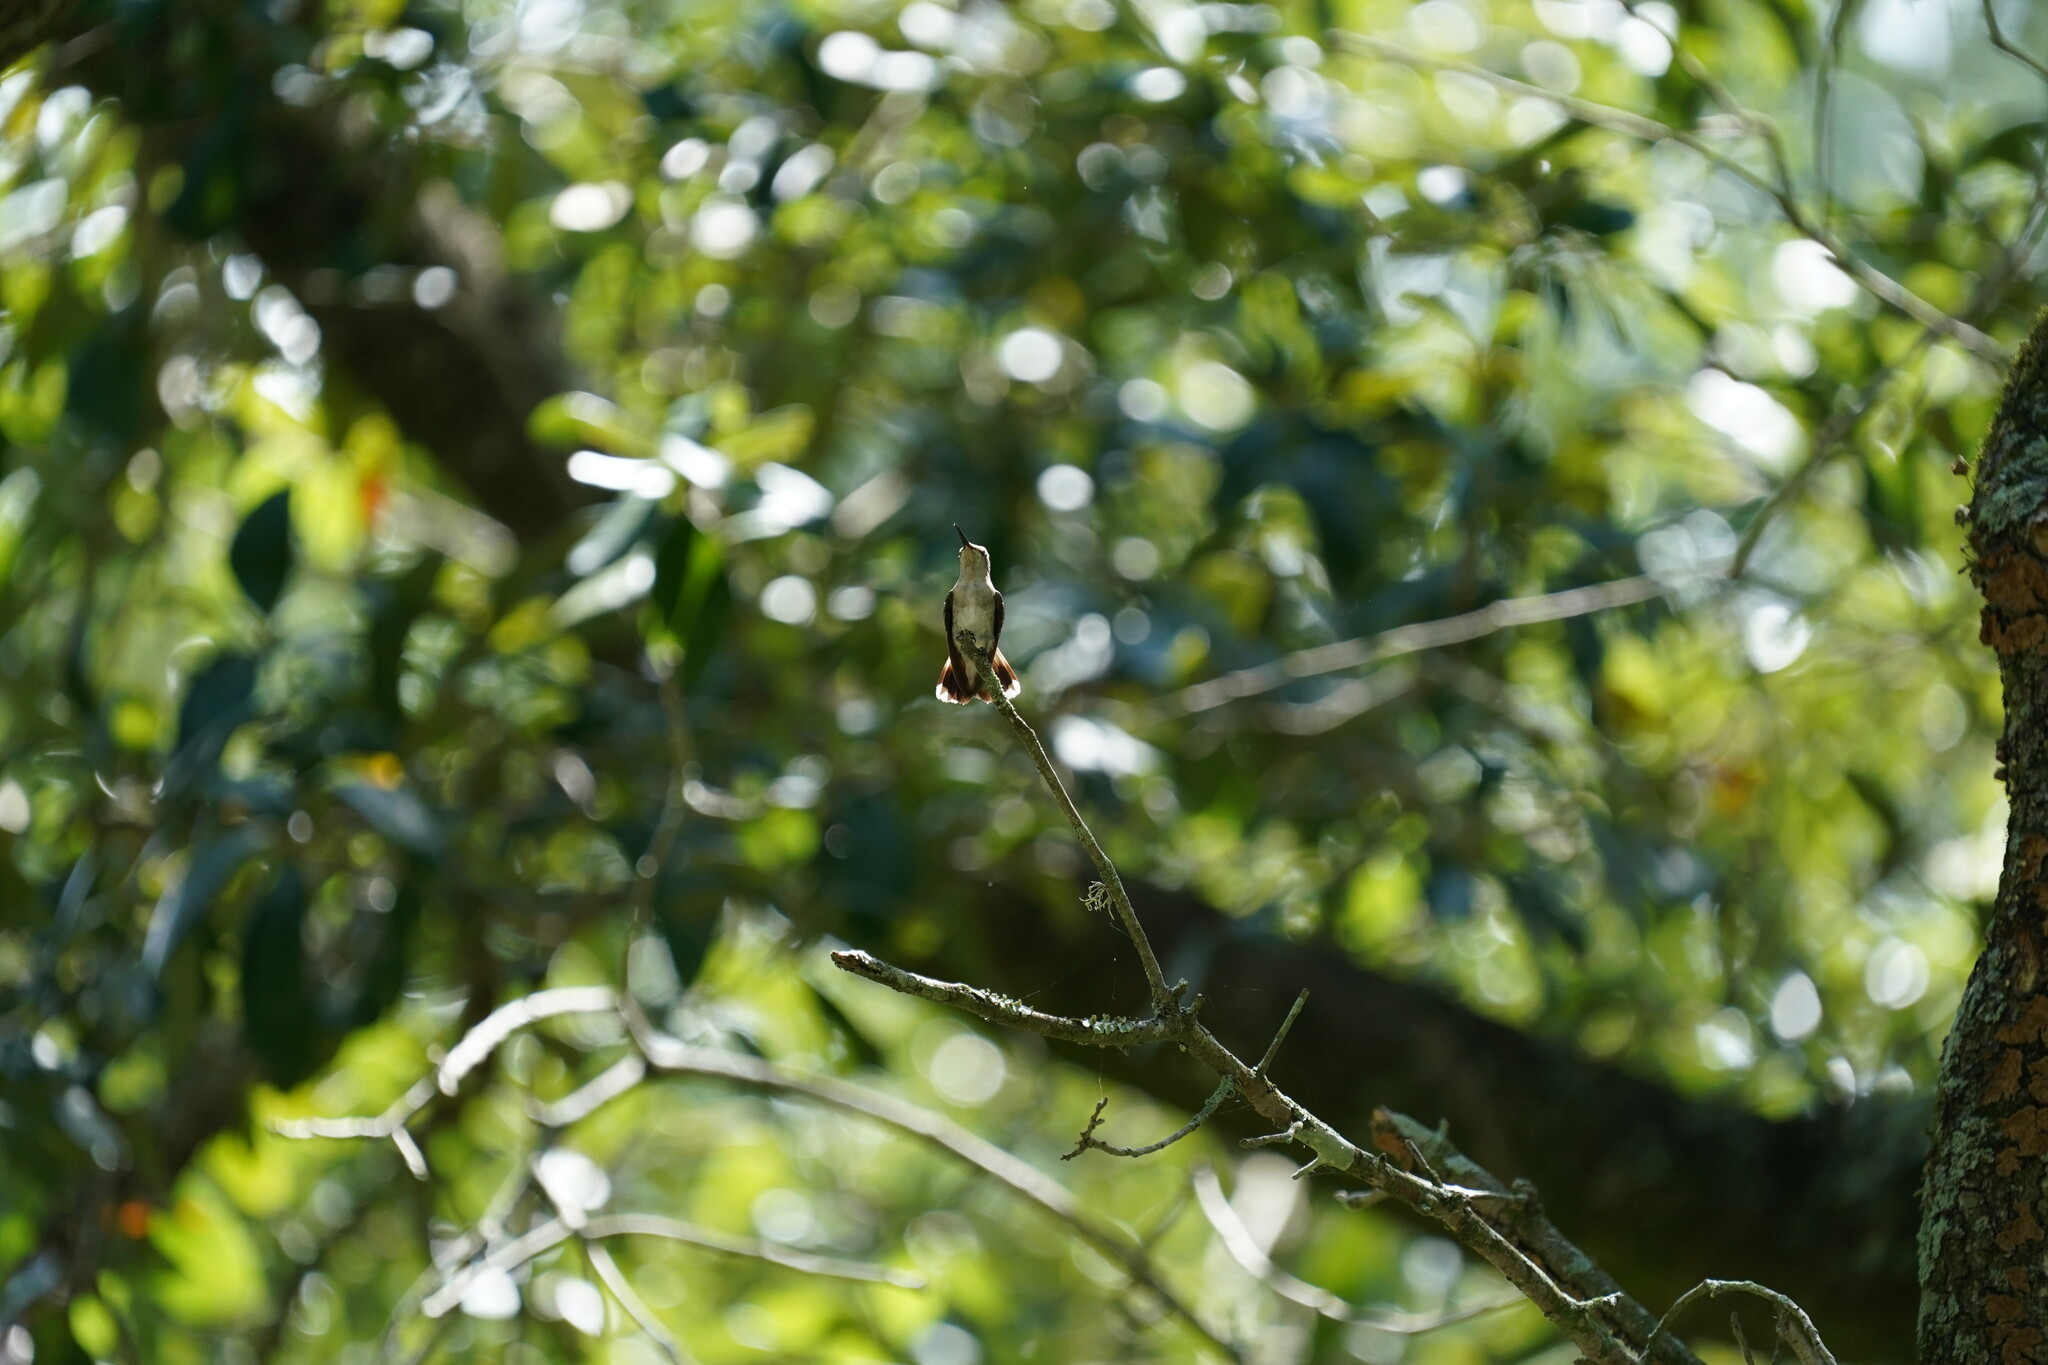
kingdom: Animalia
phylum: Chordata
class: Aves
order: Apodiformes
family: Trochilidae
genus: Archilochus
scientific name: Archilochus colubris
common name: Ruby-throated hummingbird
